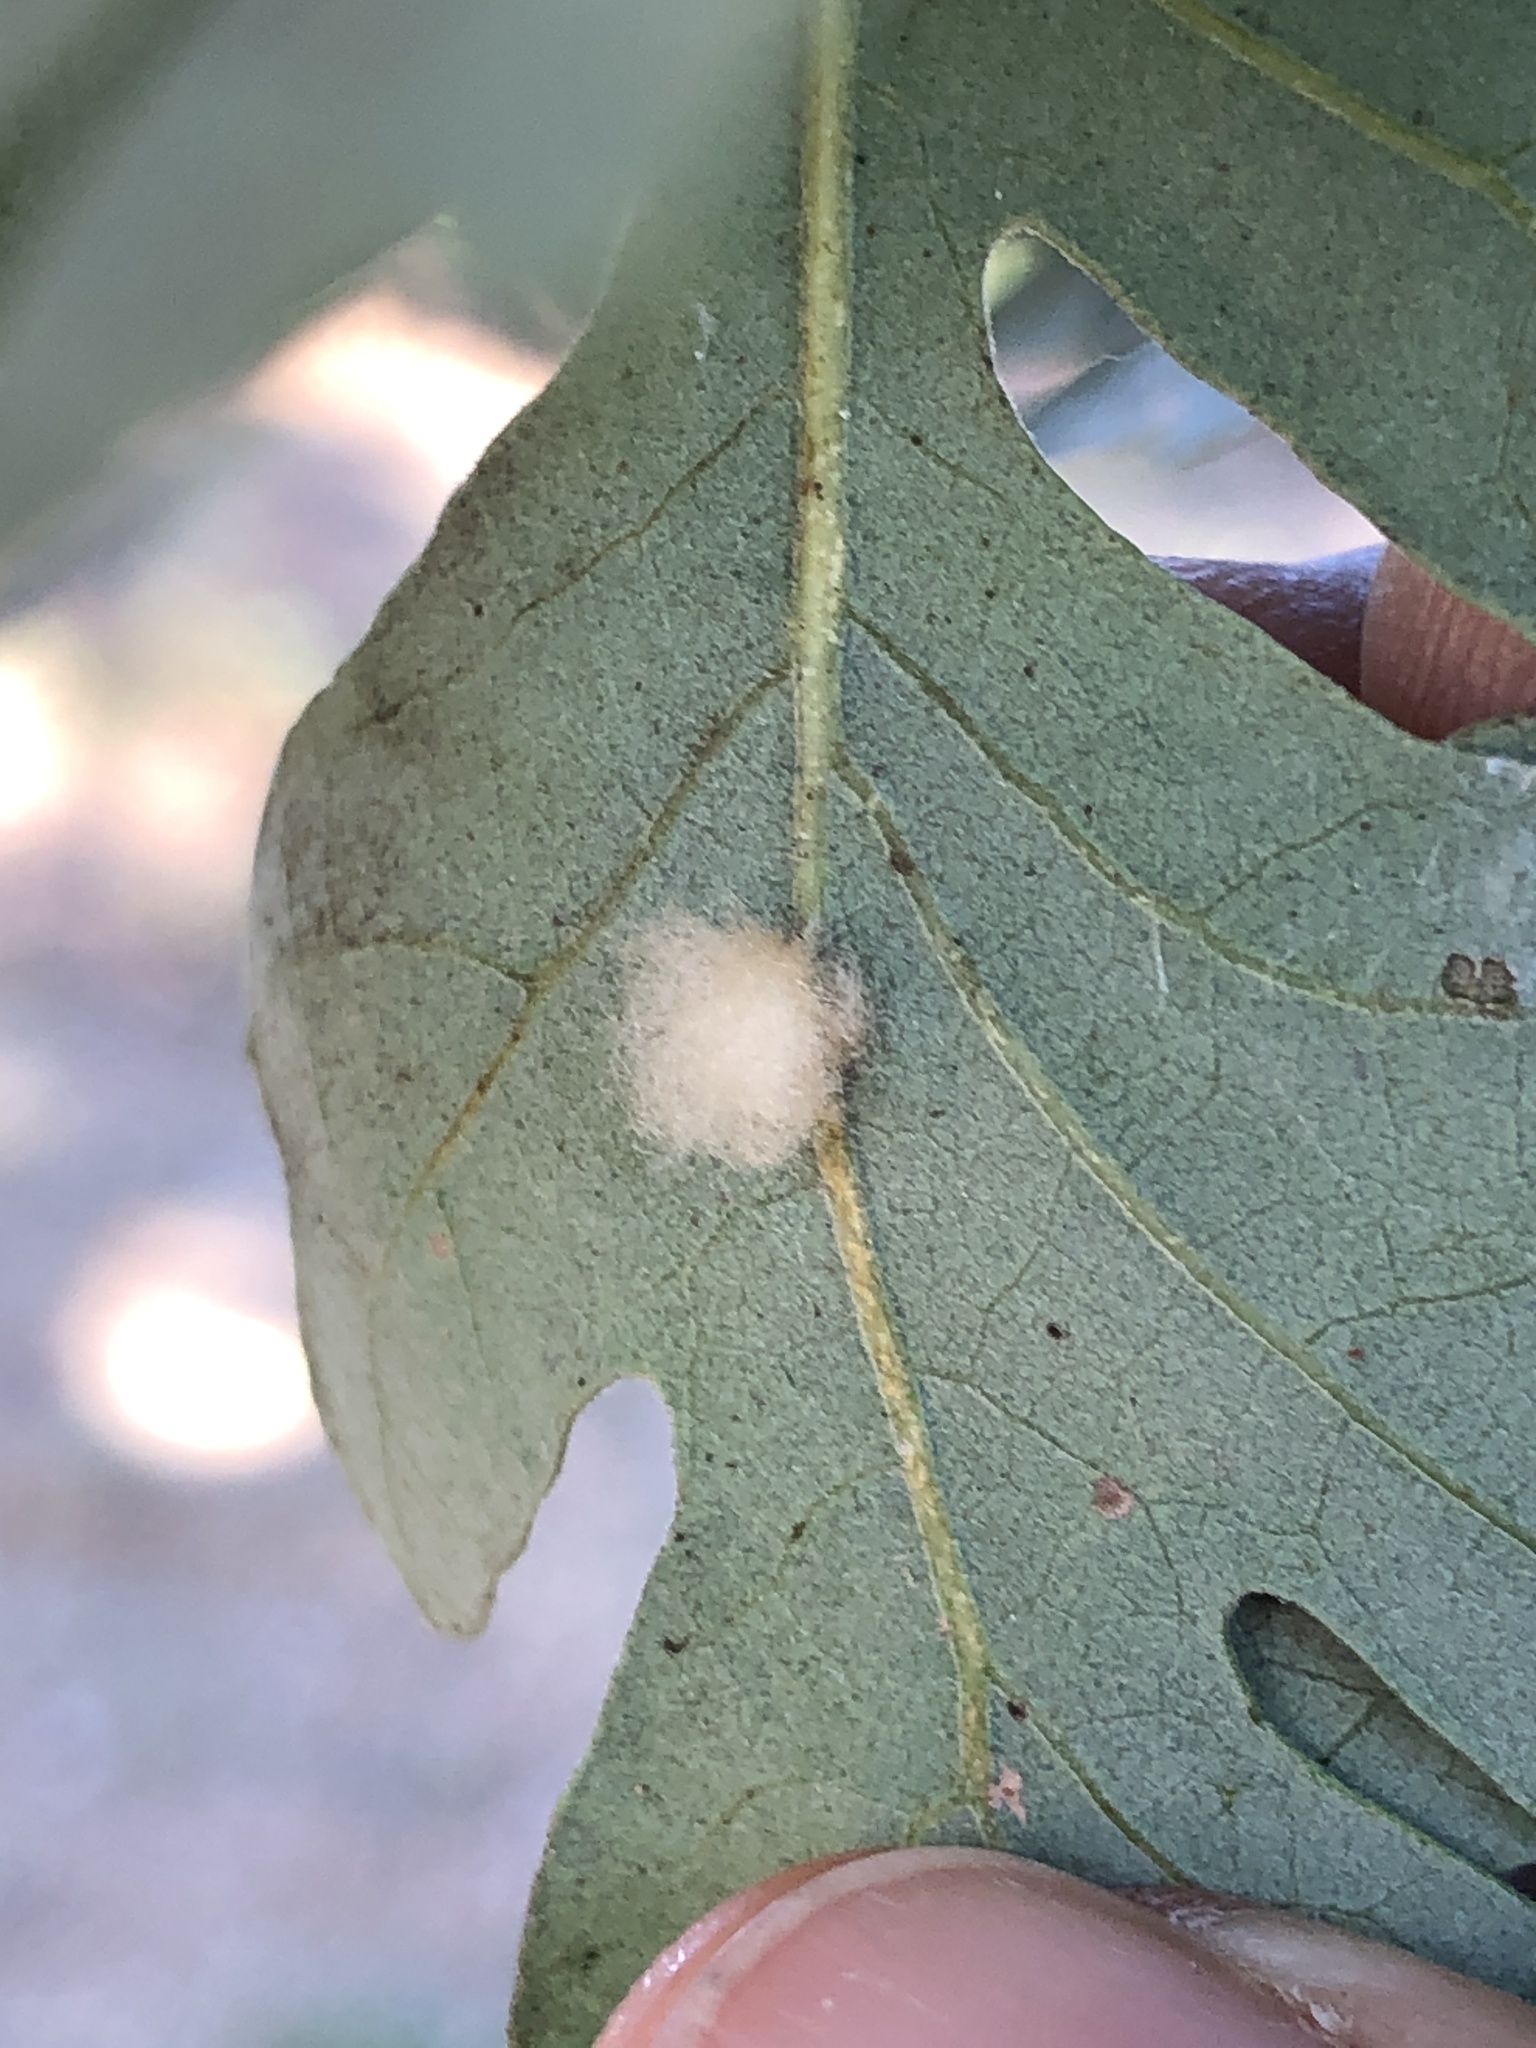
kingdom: Animalia
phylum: Arthropoda
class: Insecta
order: Hymenoptera
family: Cynipidae
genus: Andricus
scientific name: Andricus Druon fullawayi
